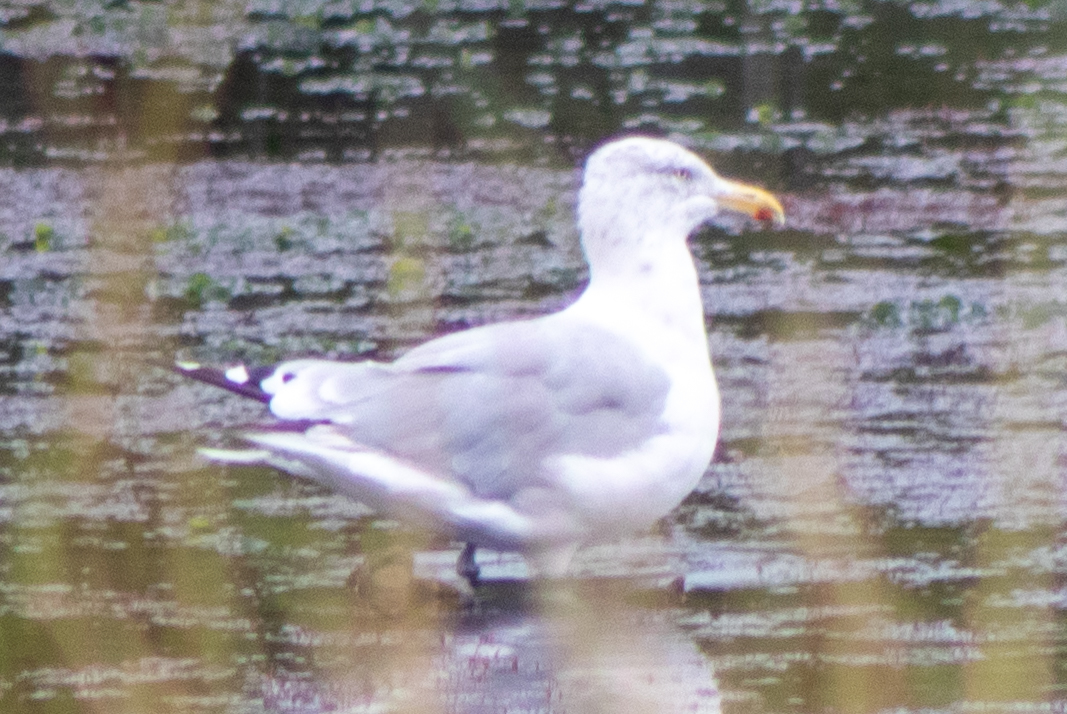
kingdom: Animalia
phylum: Chordata
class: Aves
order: Charadriiformes
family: Laridae
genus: Larus
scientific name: Larus argentatus
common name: Herring gull
